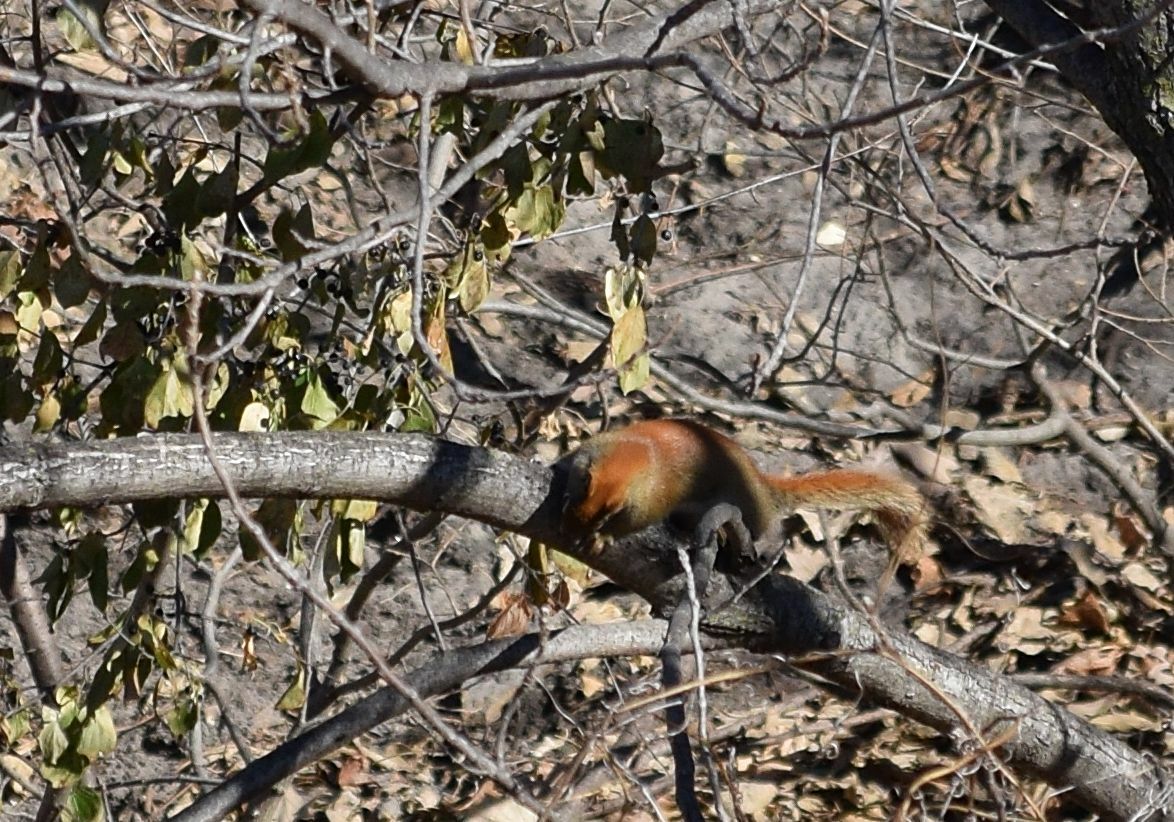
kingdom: Animalia
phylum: Chordata
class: Mammalia
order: Rodentia
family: Sciuridae
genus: Tamiasciurus
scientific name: Tamiasciurus hudsonicus
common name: Red squirrel
